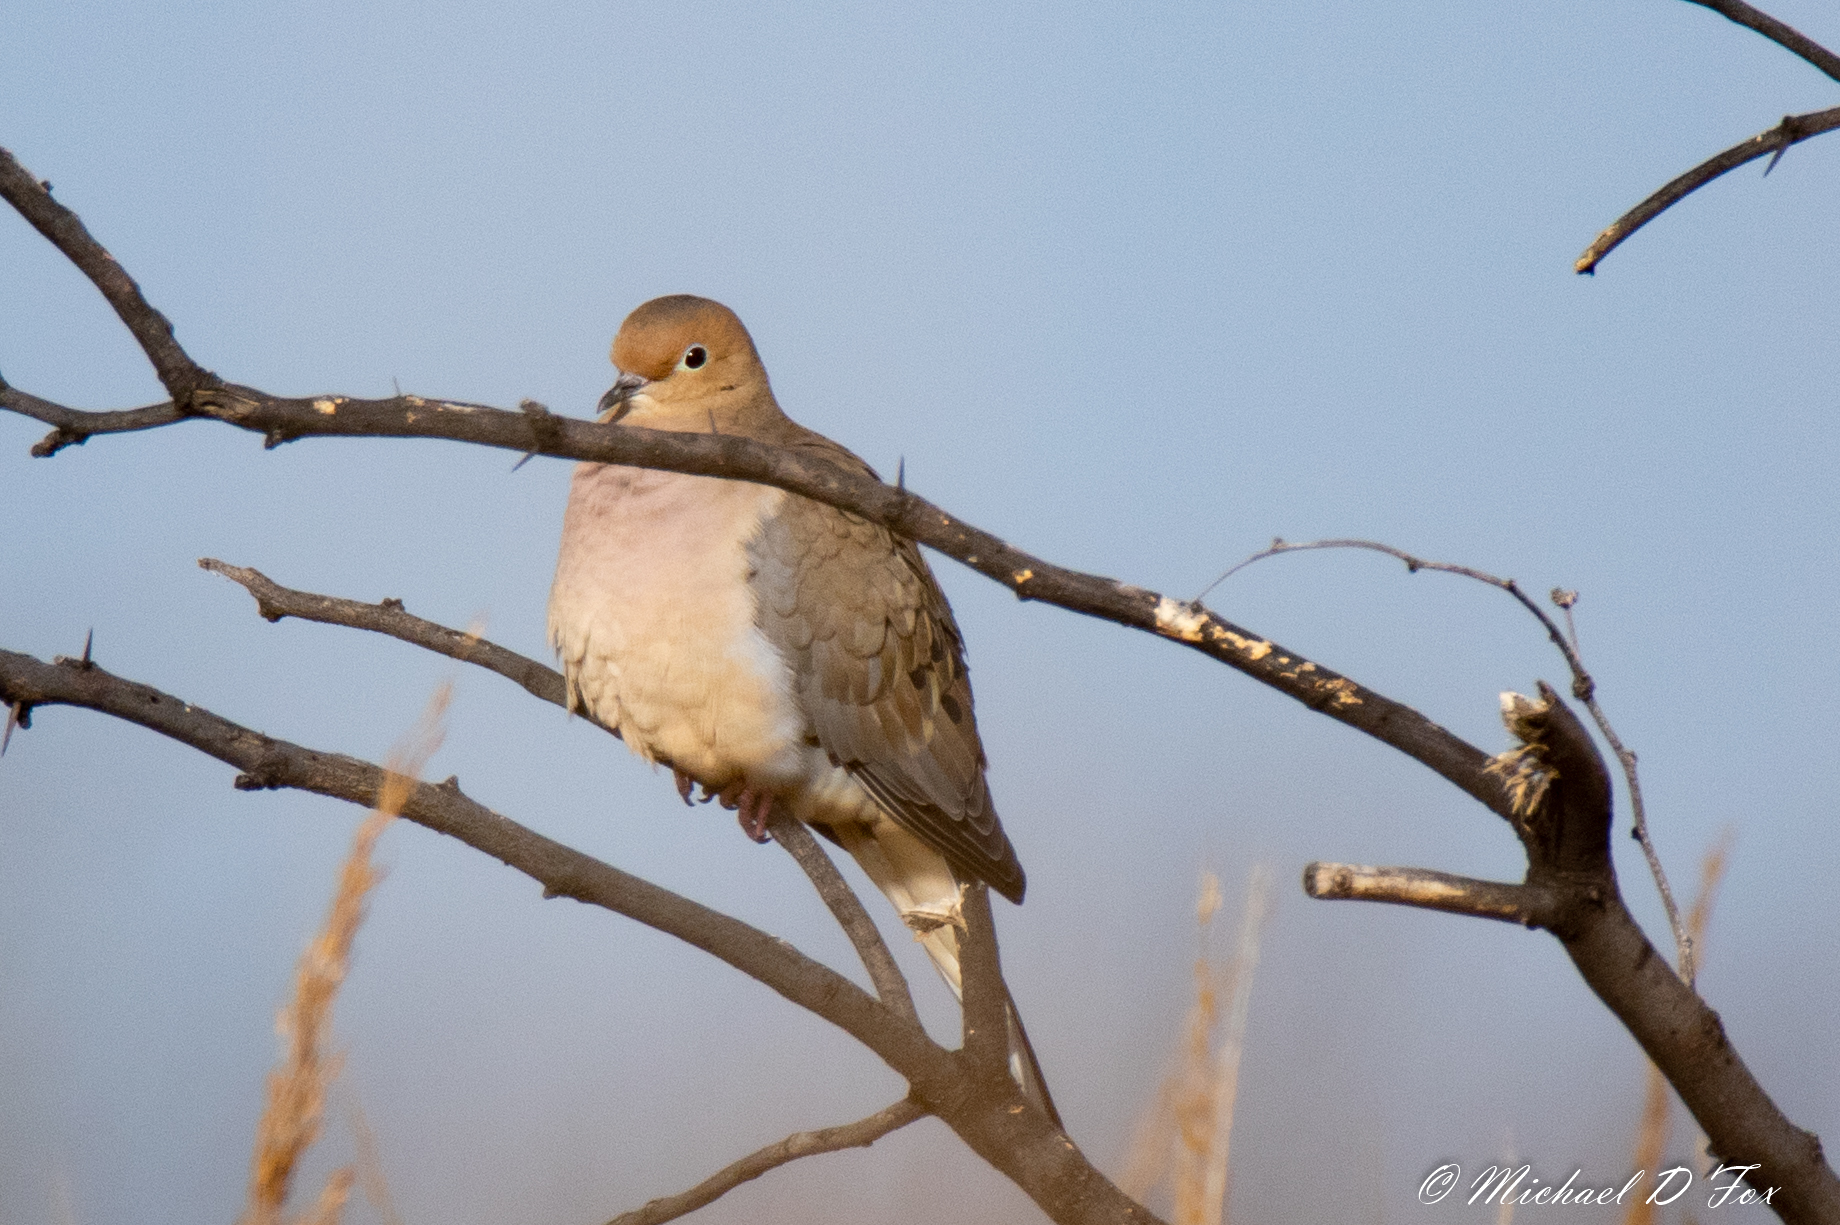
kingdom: Animalia
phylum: Chordata
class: Aves
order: Columbiformes
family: Columbidae
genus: Zenaida
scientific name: Zenaida macroura
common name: Mourning dove
